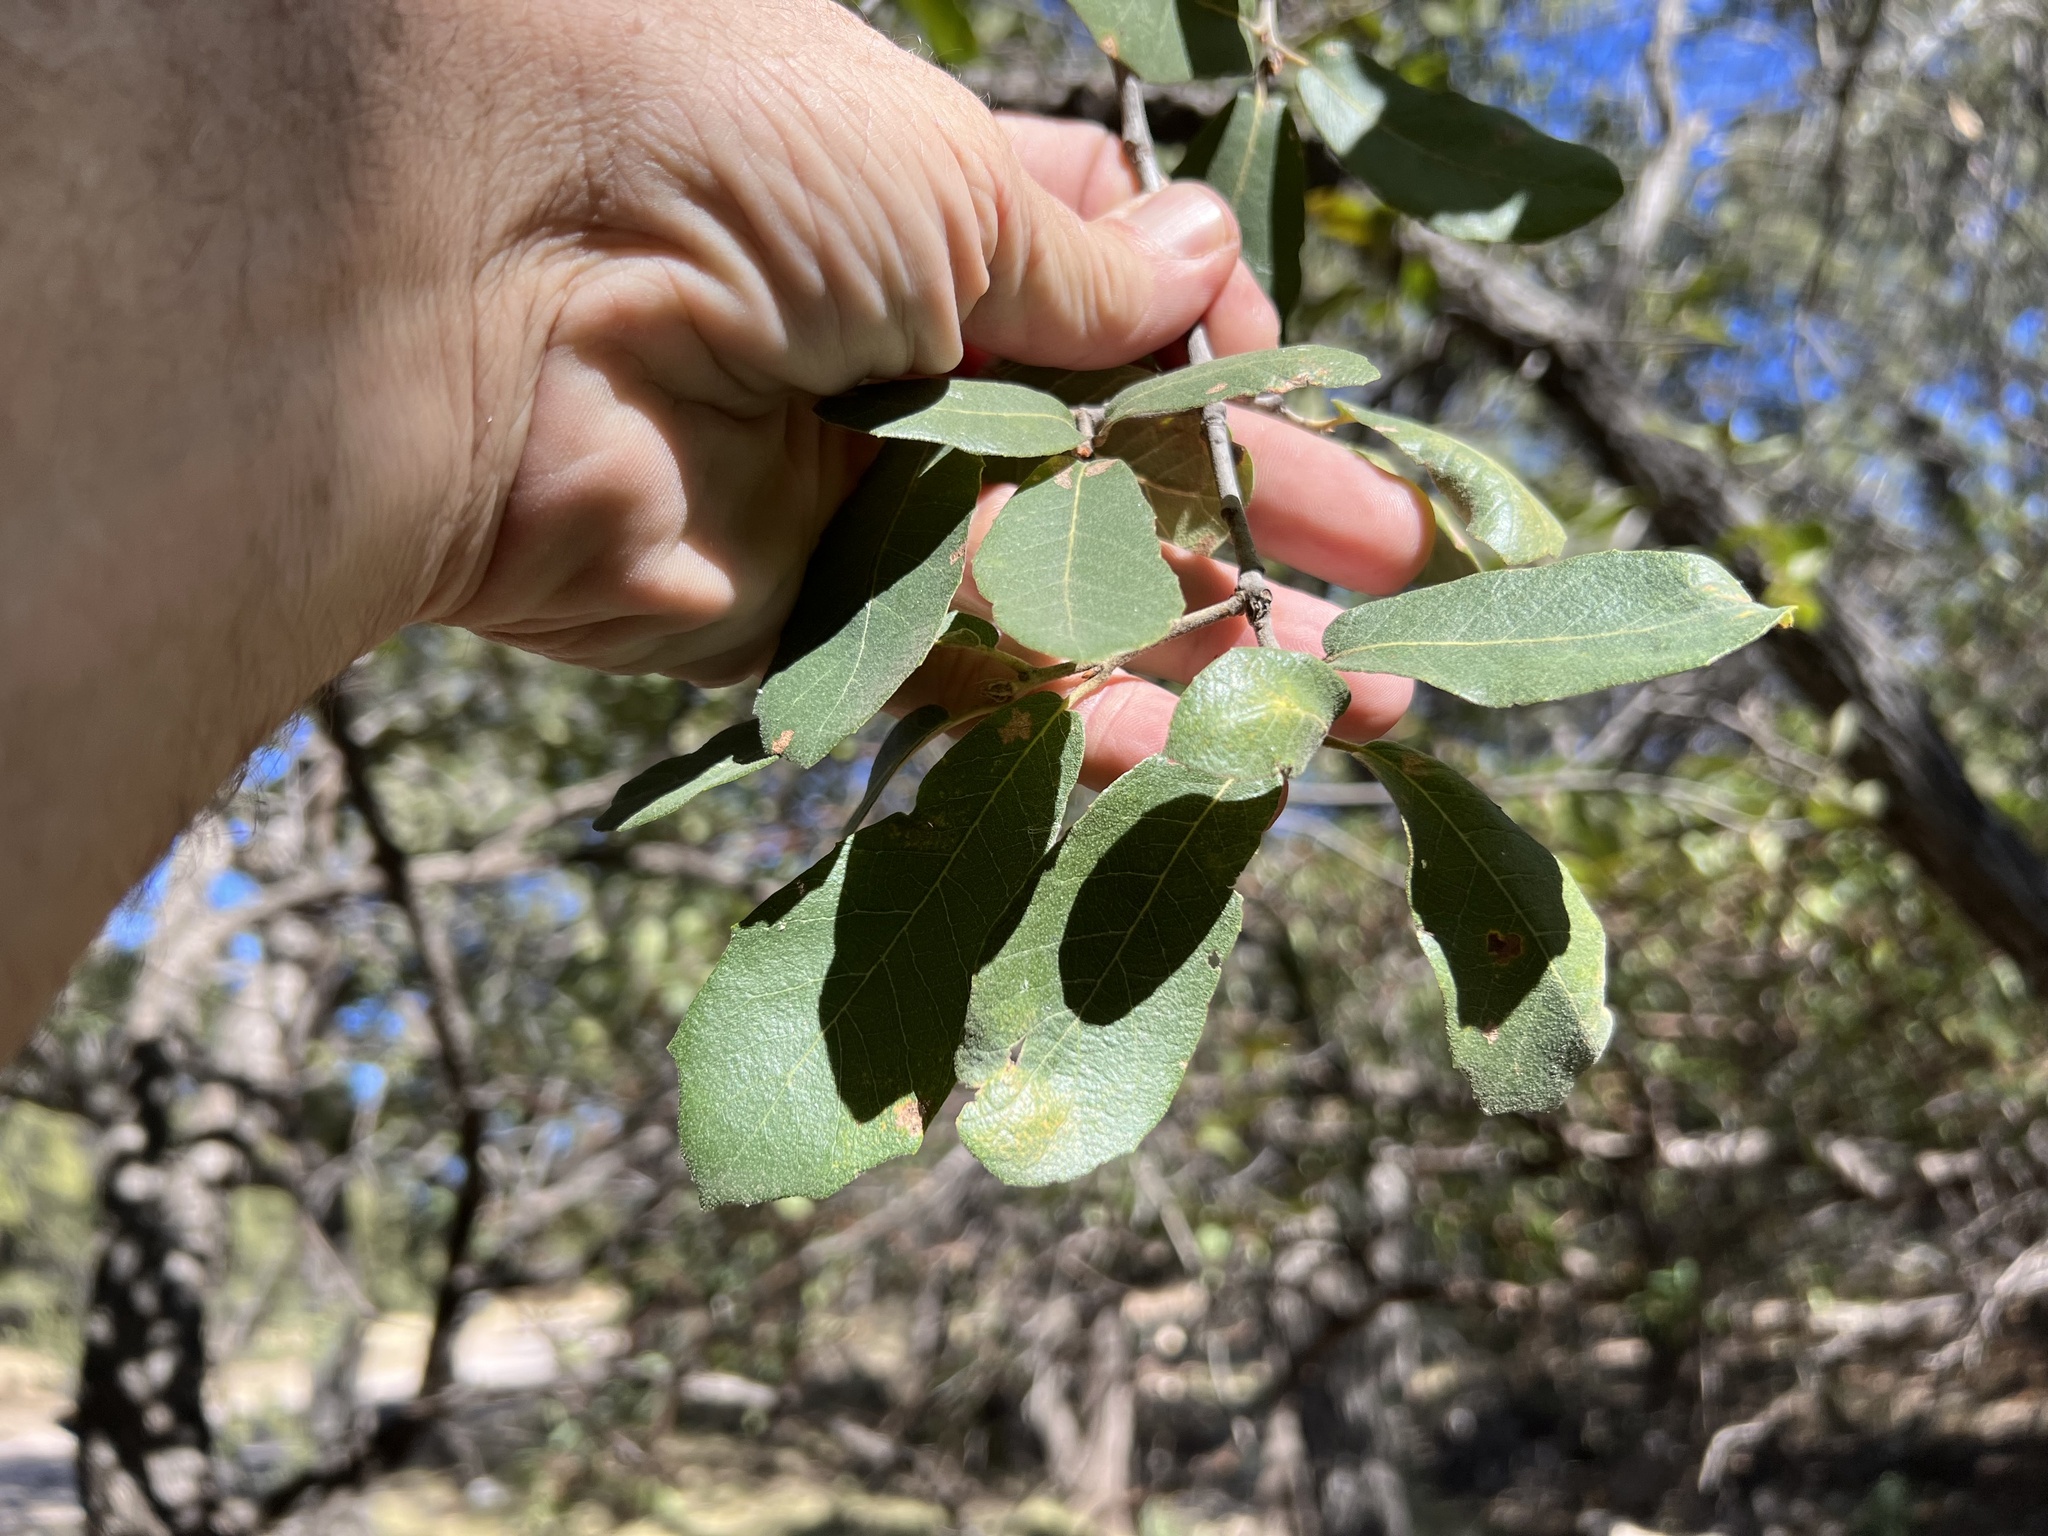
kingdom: Plantae
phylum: Tracheophyta
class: Magnoliopsida
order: Fagales
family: Fagaceae
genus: Quercus
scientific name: Quercus arizonica
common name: Arizona white oak
